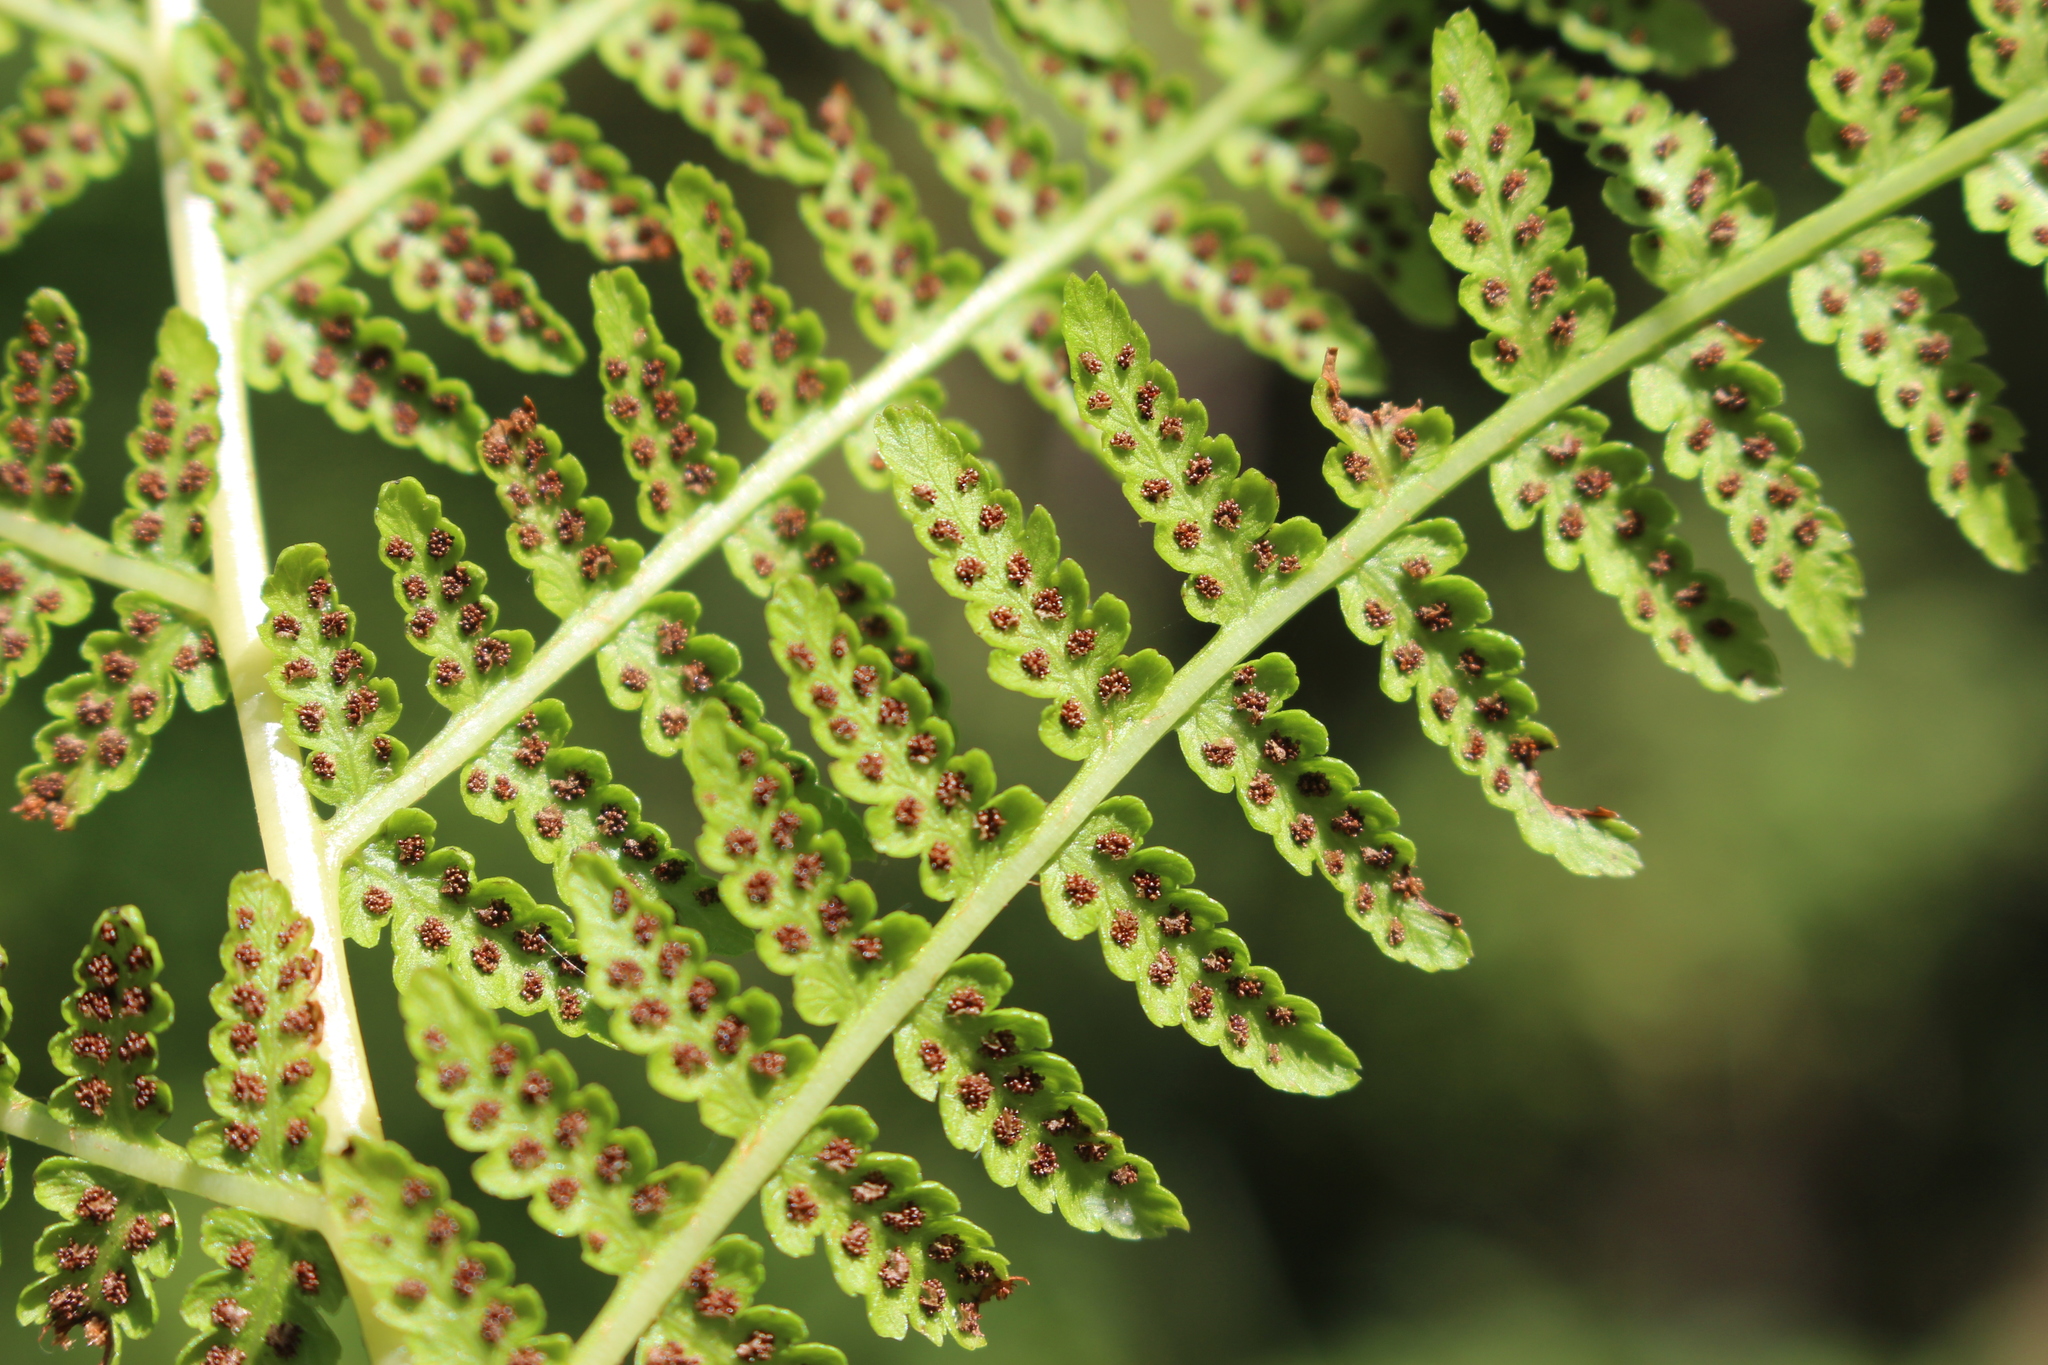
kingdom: Plantae
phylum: Tracheophyta
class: Polypodiopsida
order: Polypodiales
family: Athyriaceae
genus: Athyrium
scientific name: Athyrium filix-femina
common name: Lady fern
